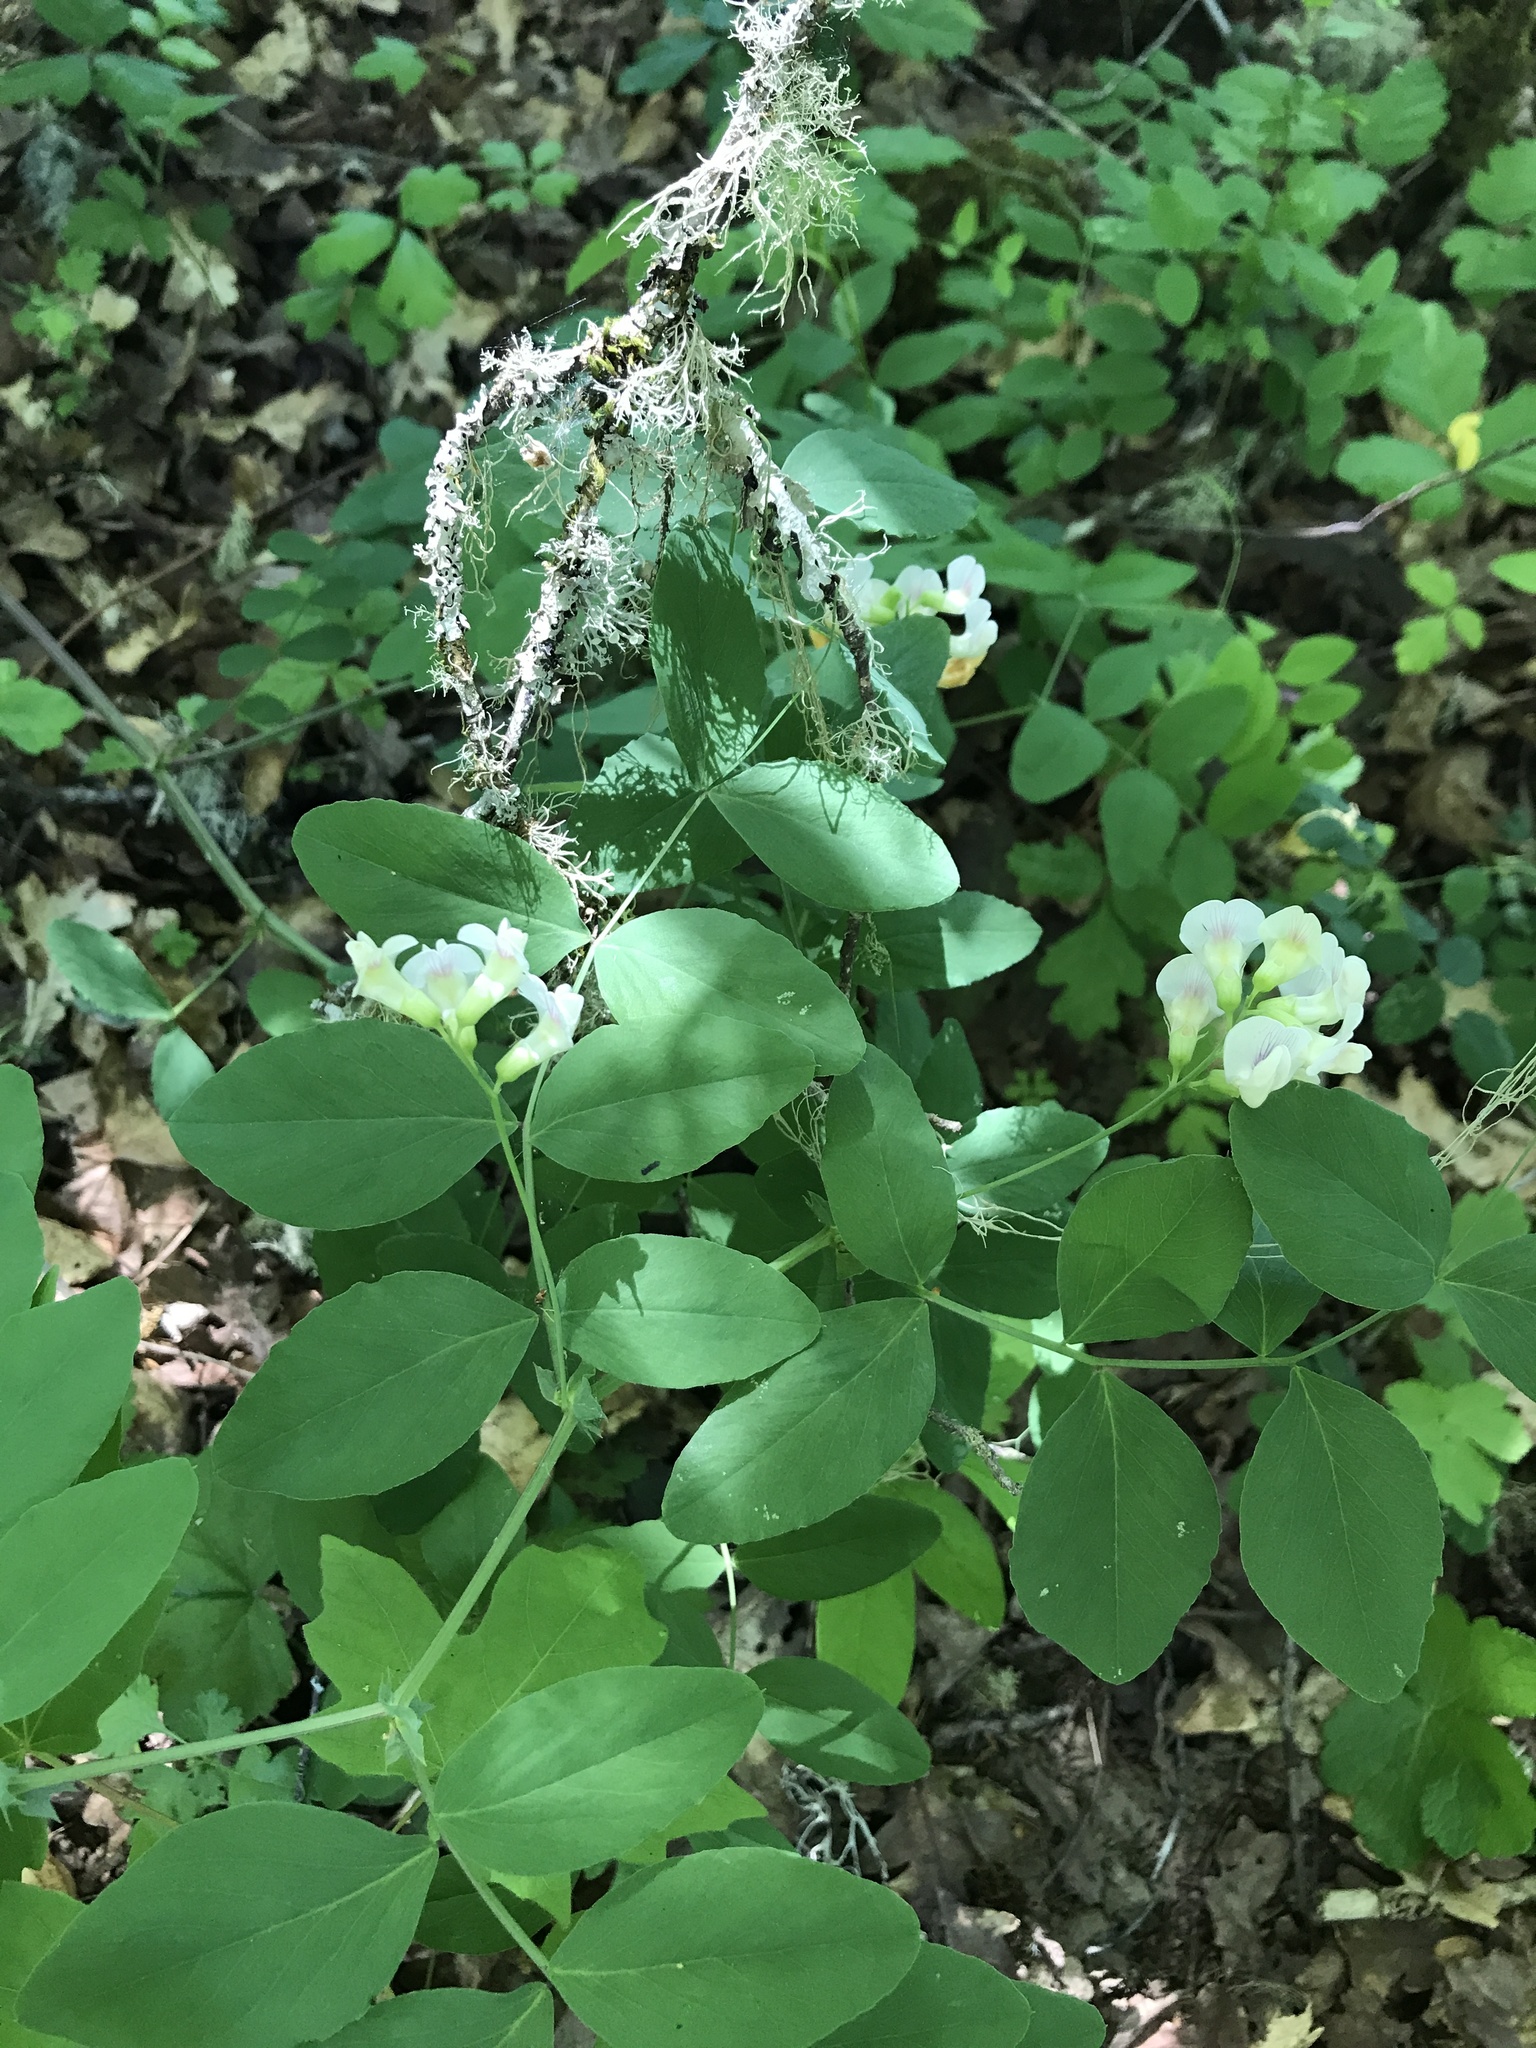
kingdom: Plantae
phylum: Tracheophyta
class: Magnoliopsida
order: Fabales
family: Fabaceae
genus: Lathyrus
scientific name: Lathyrus holochlorus
